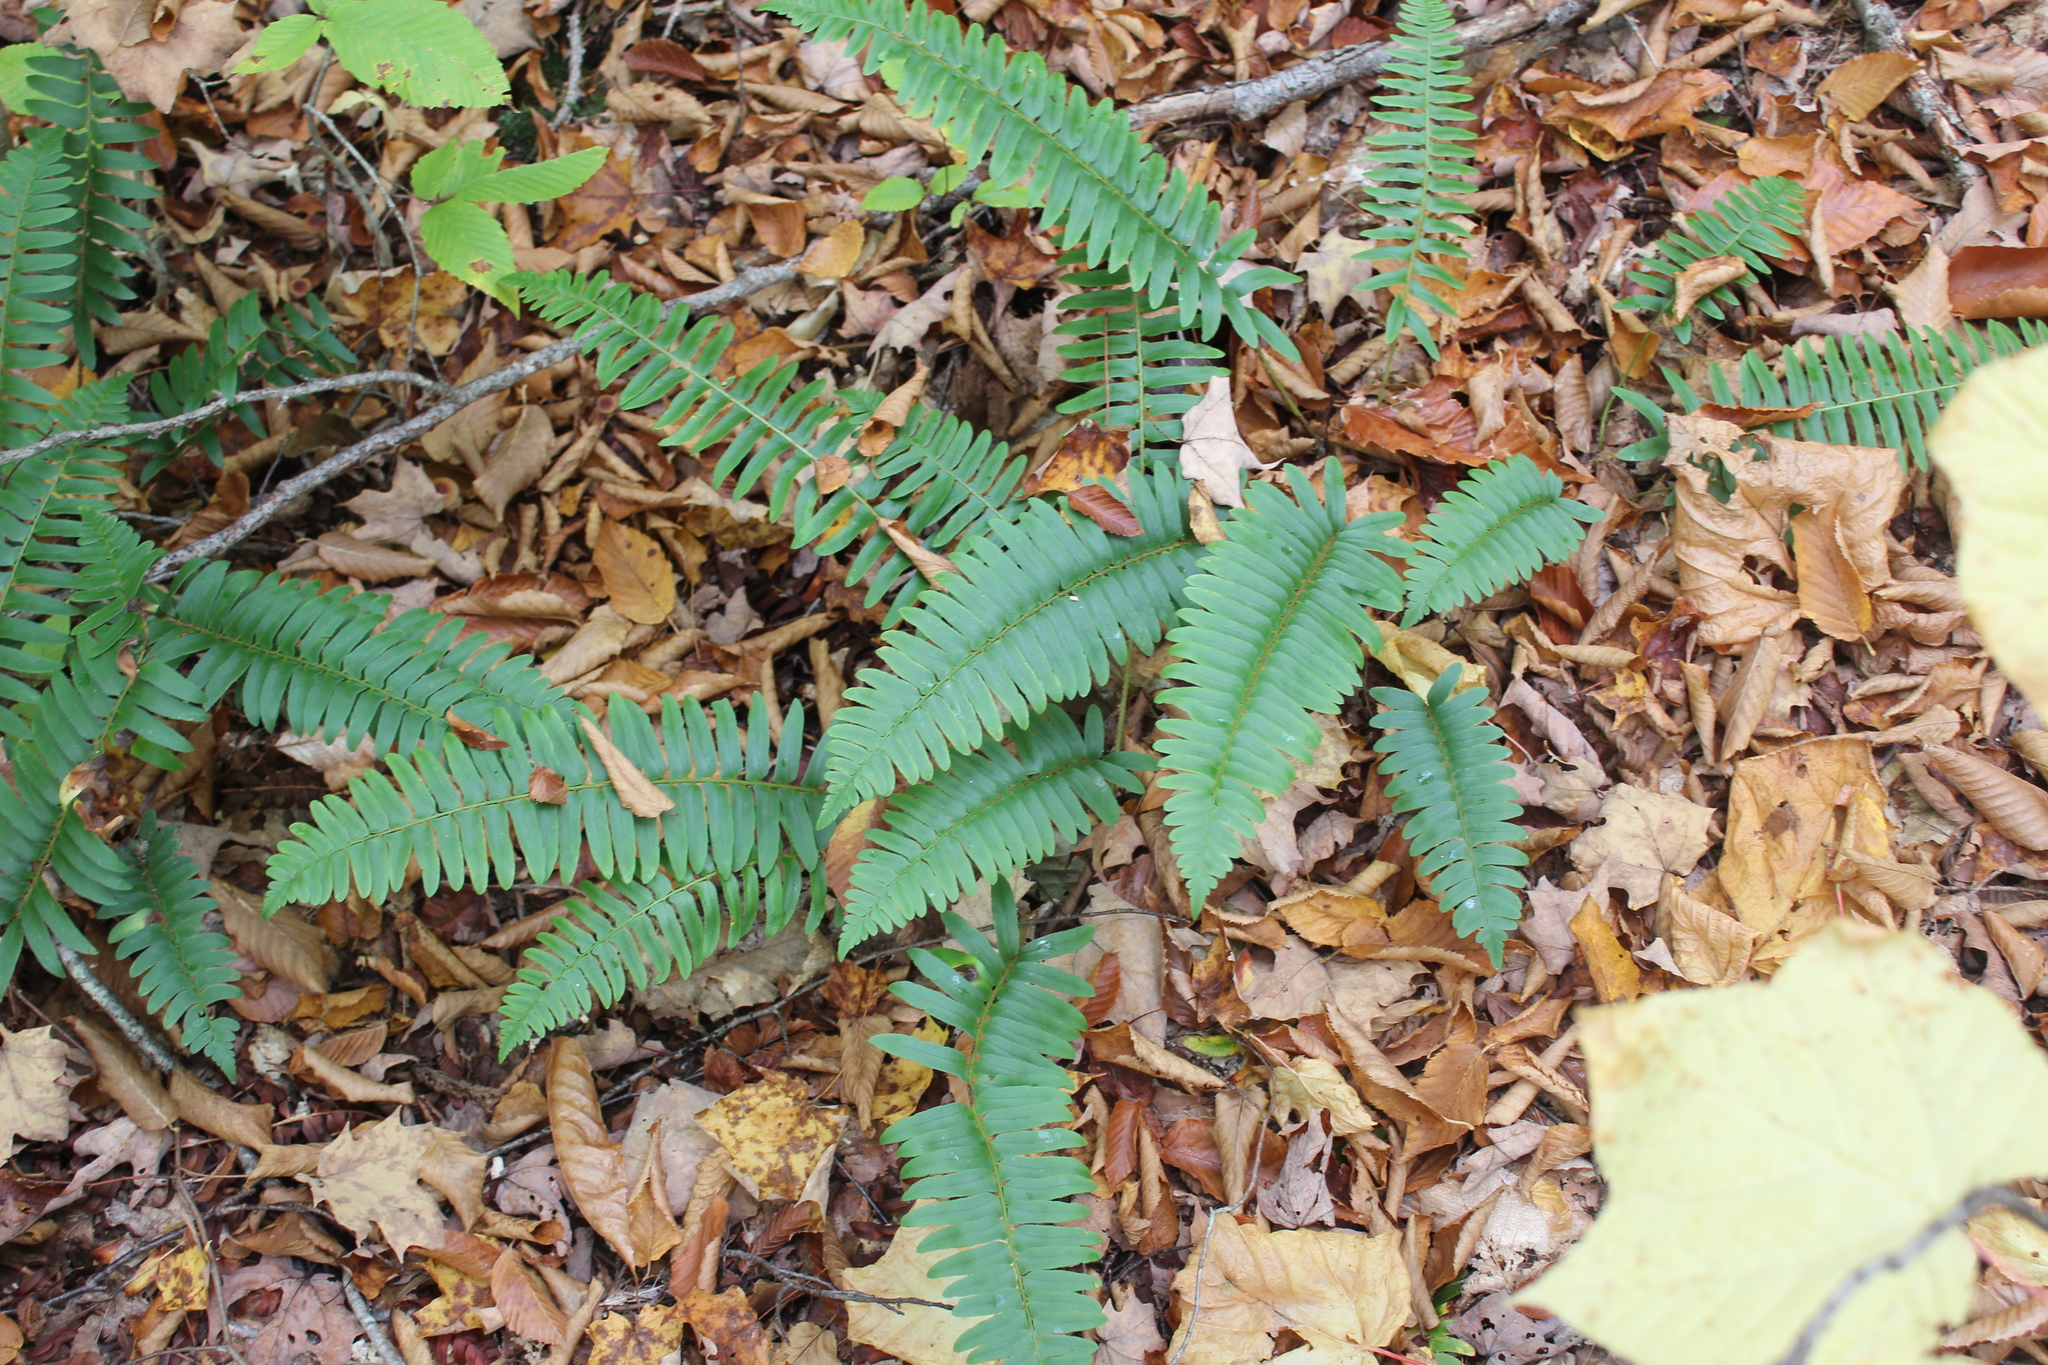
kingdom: Plantae
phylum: Tracheophyta
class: Polypodiopsida
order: Polypodiales
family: Dryopteridaceae
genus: Polystichum
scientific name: Polystichum acrostichoides
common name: Christmas fern
